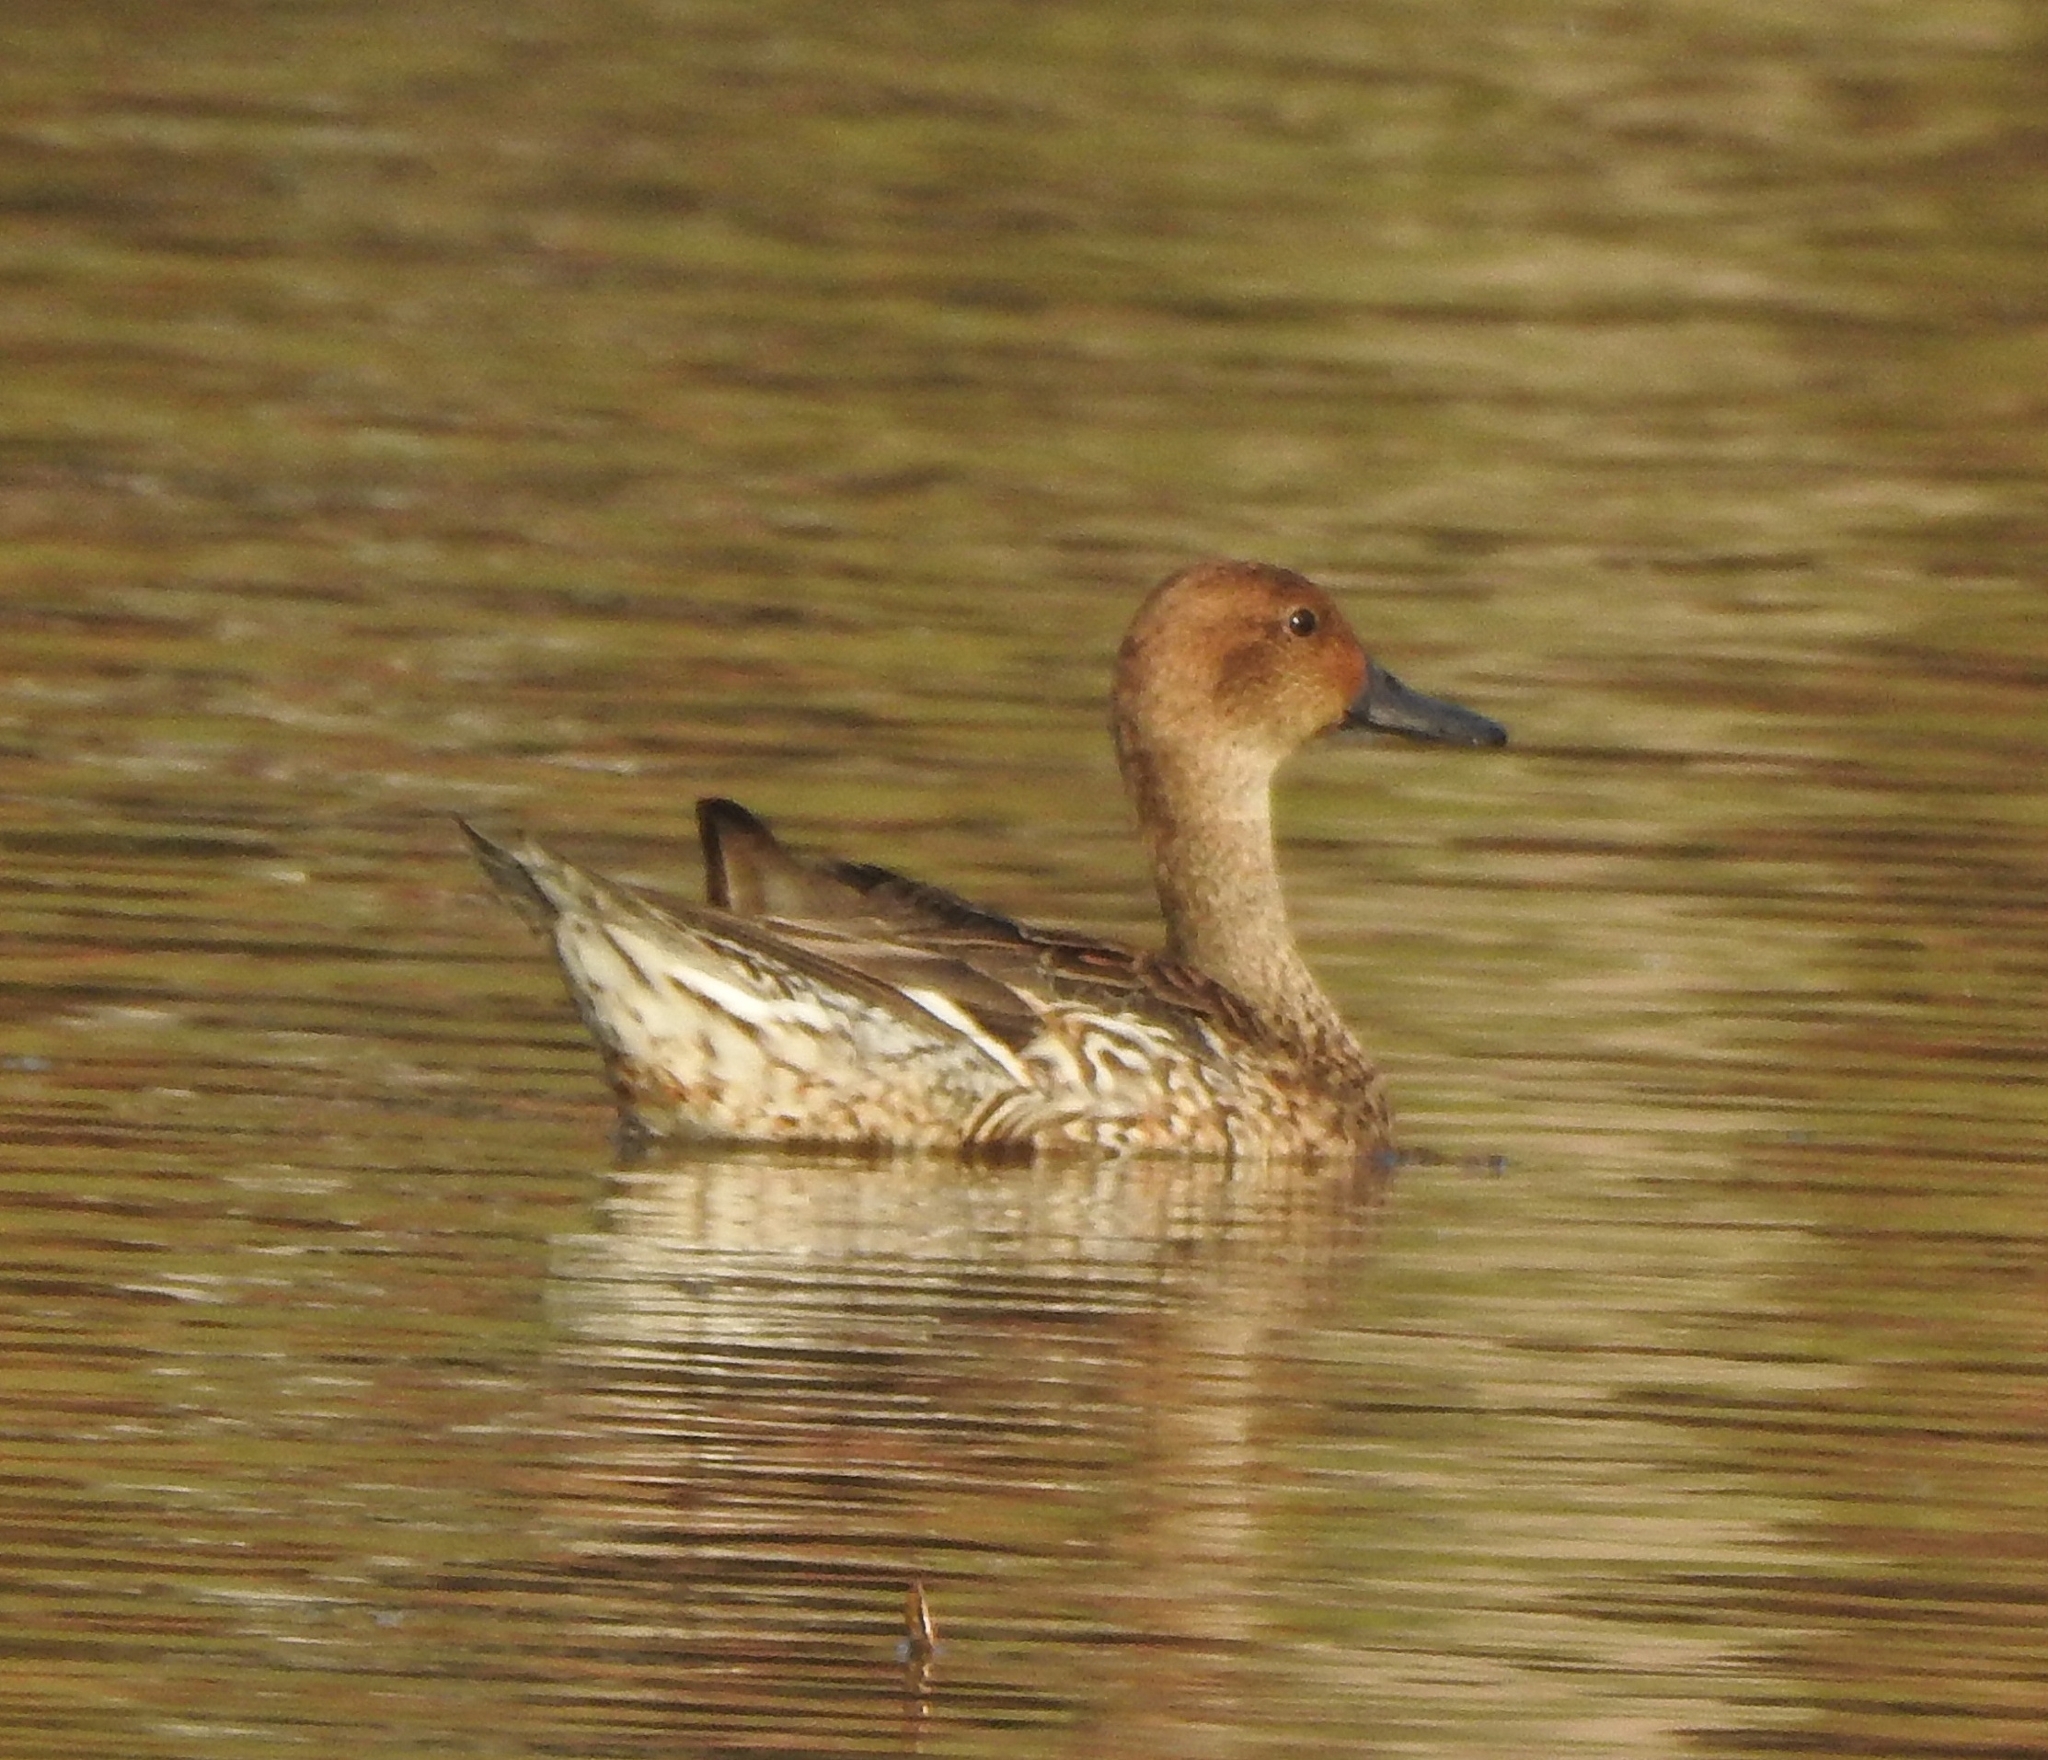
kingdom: Animalia
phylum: Chordata
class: Aves
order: Anseriformes
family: Anatidae
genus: Anas
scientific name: Anas acuta
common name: Northern pintail
